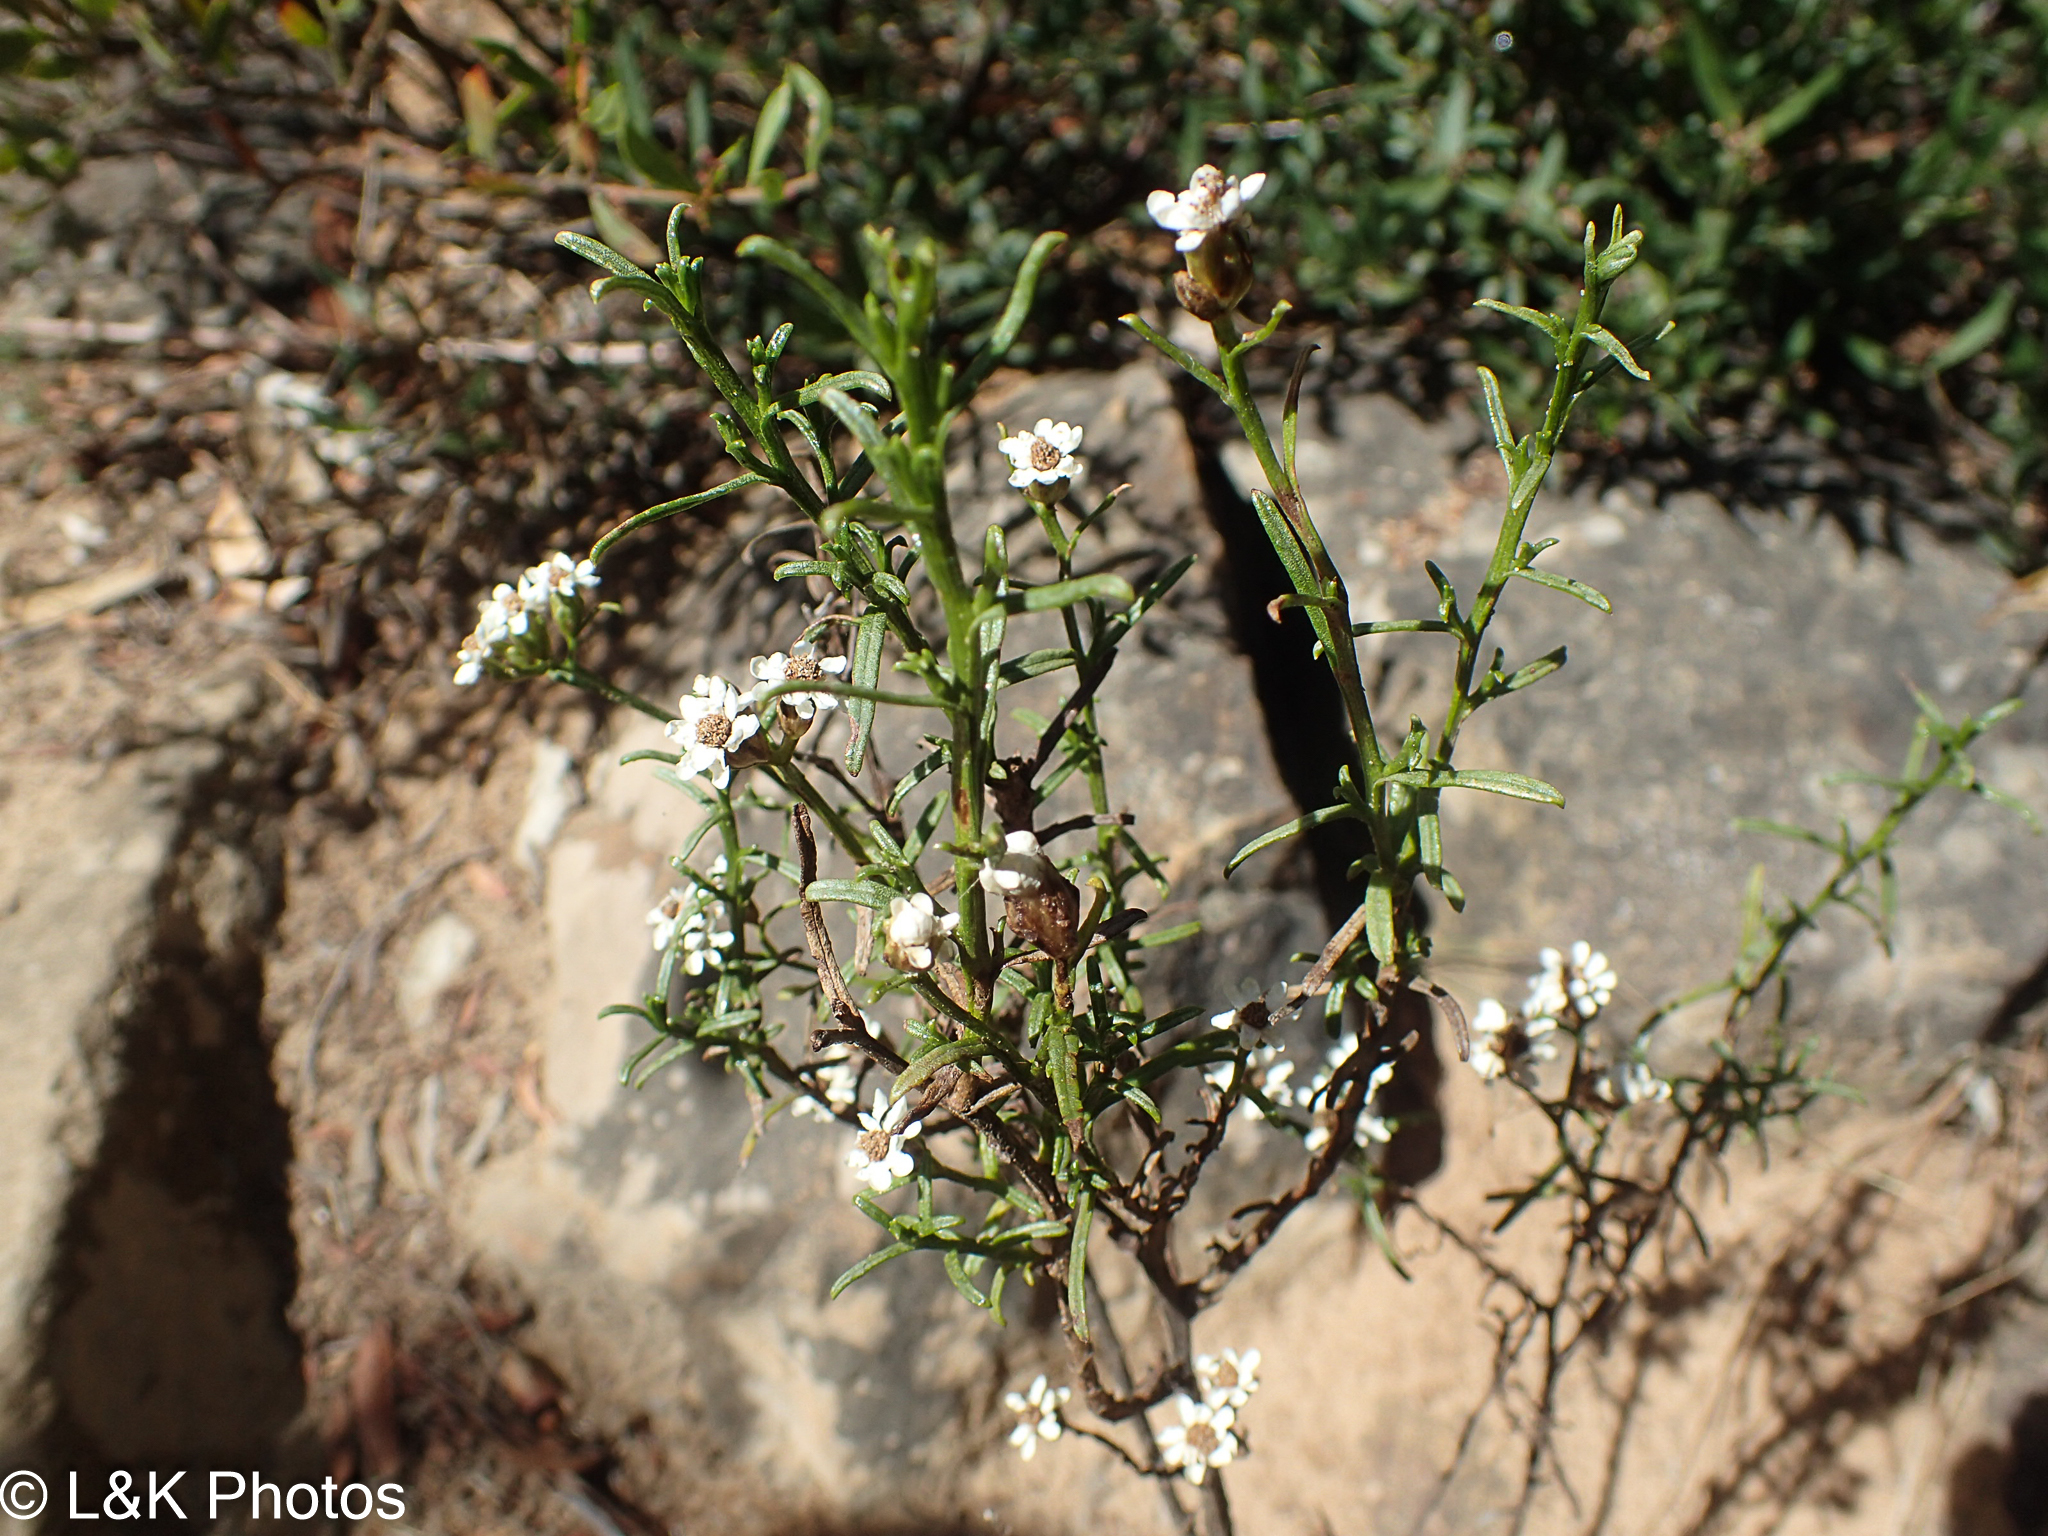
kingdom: Plantae
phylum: Tracheophyta
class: Magnoliopsida
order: Asterales
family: Asteraceae
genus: Ixodia
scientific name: Ixodia achillaeoides
